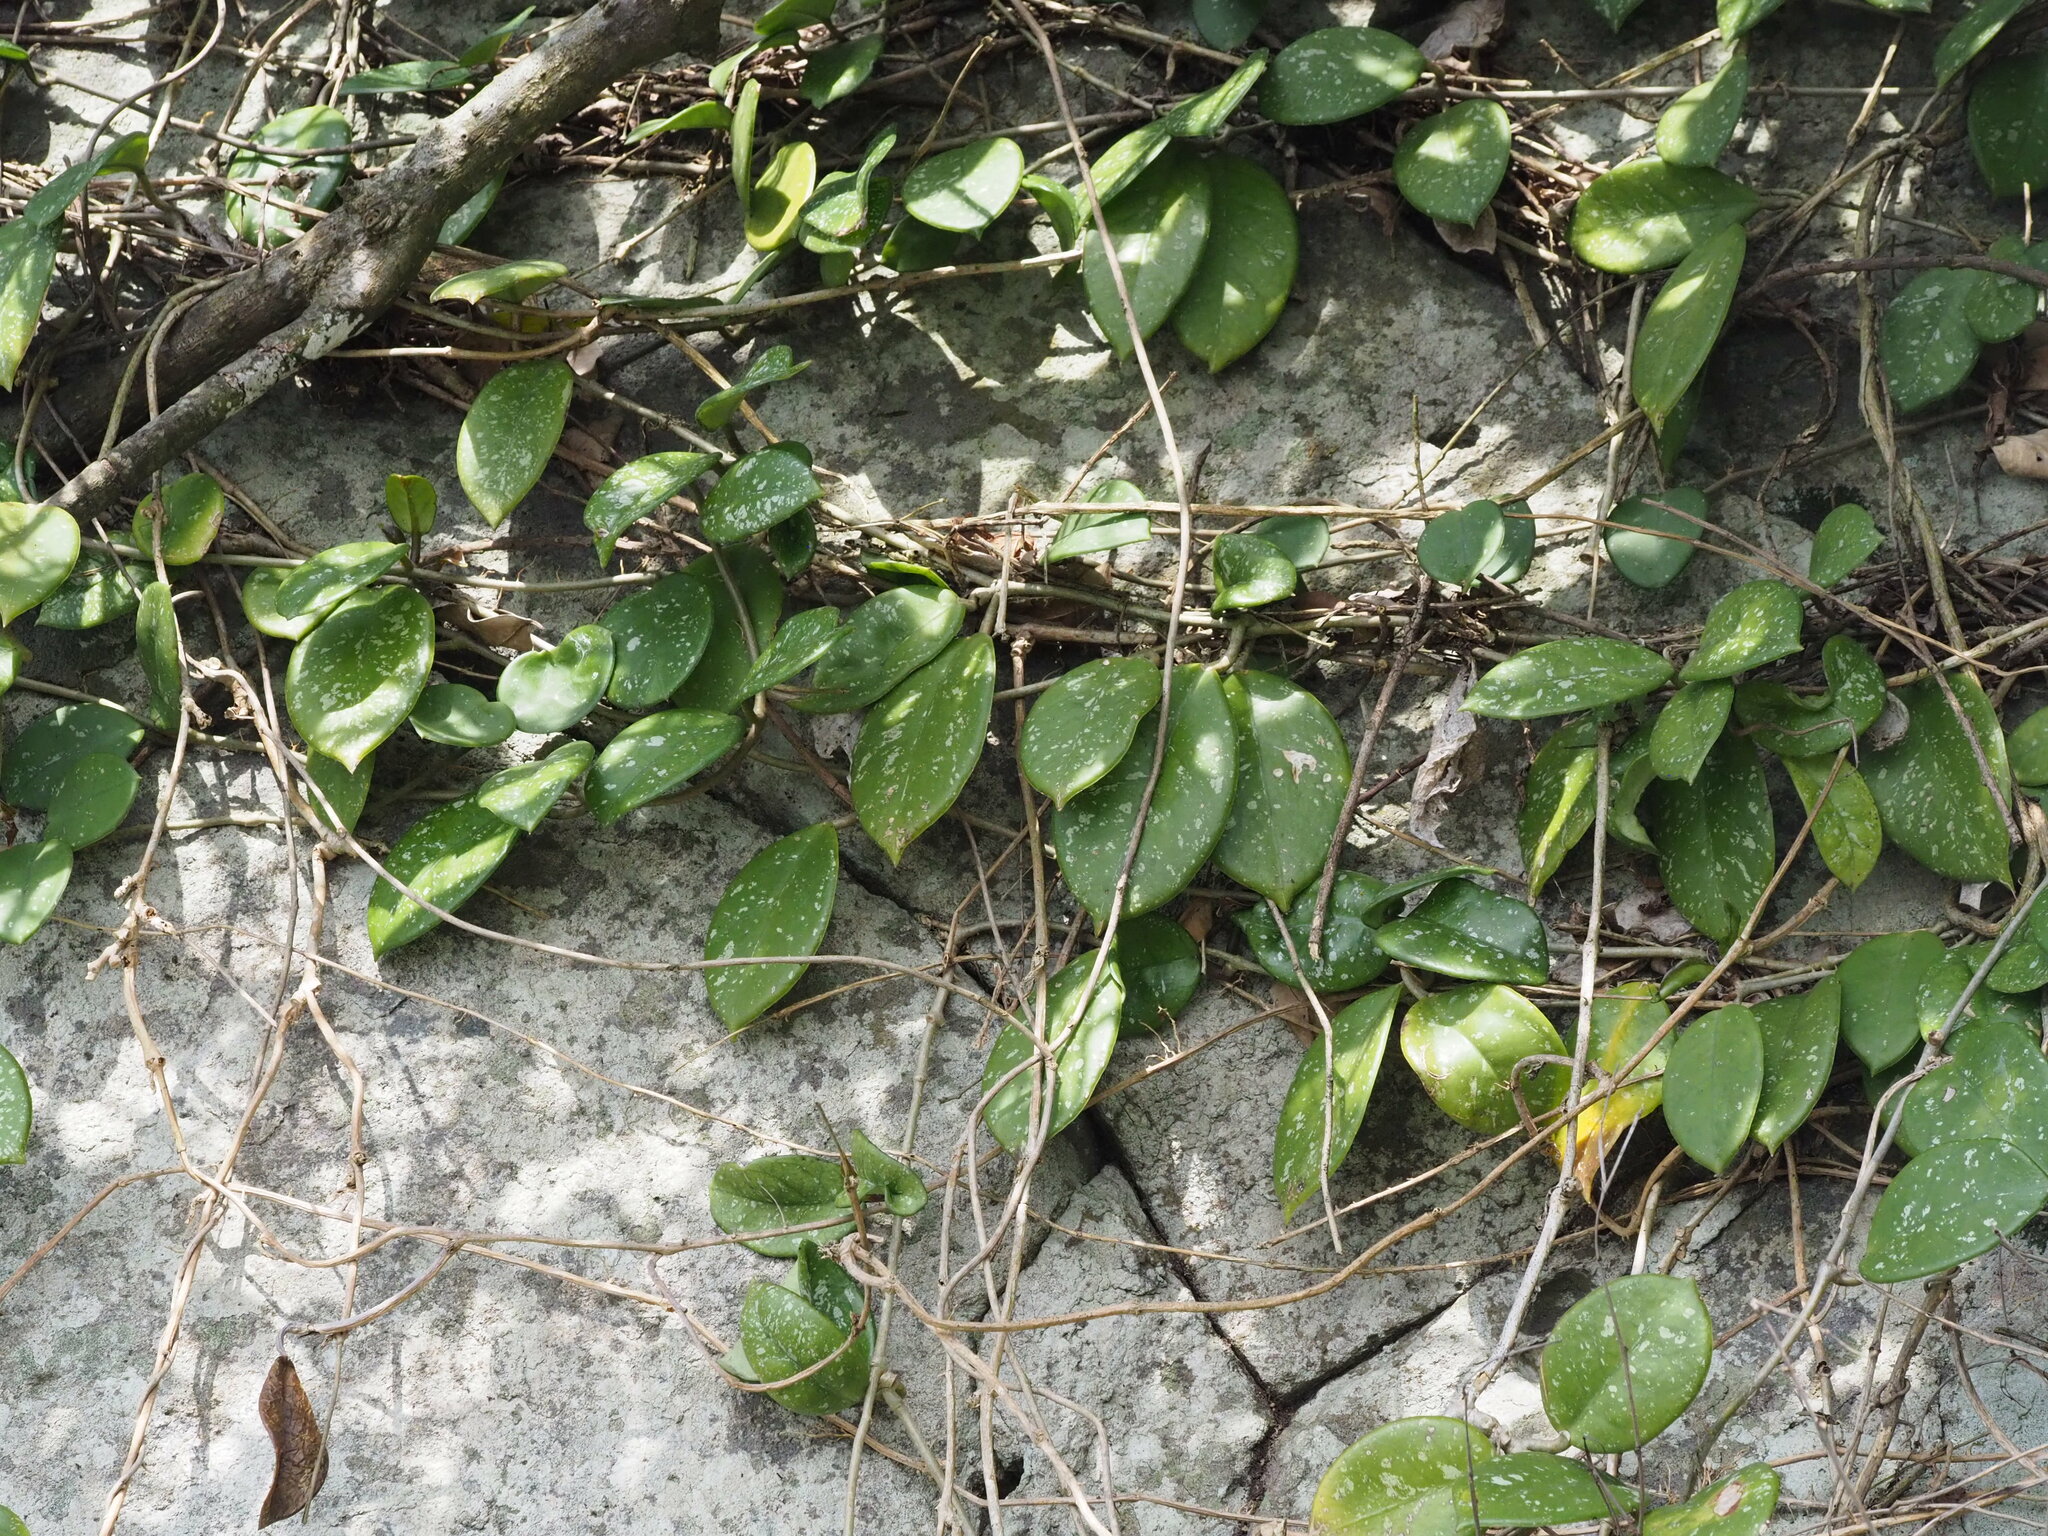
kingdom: Plantae
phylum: Tracheophyta
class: Magnoliopsida
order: Gentianales
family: Apocynaceae
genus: Hoya
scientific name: Hoya carnosa
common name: Honeyplant
